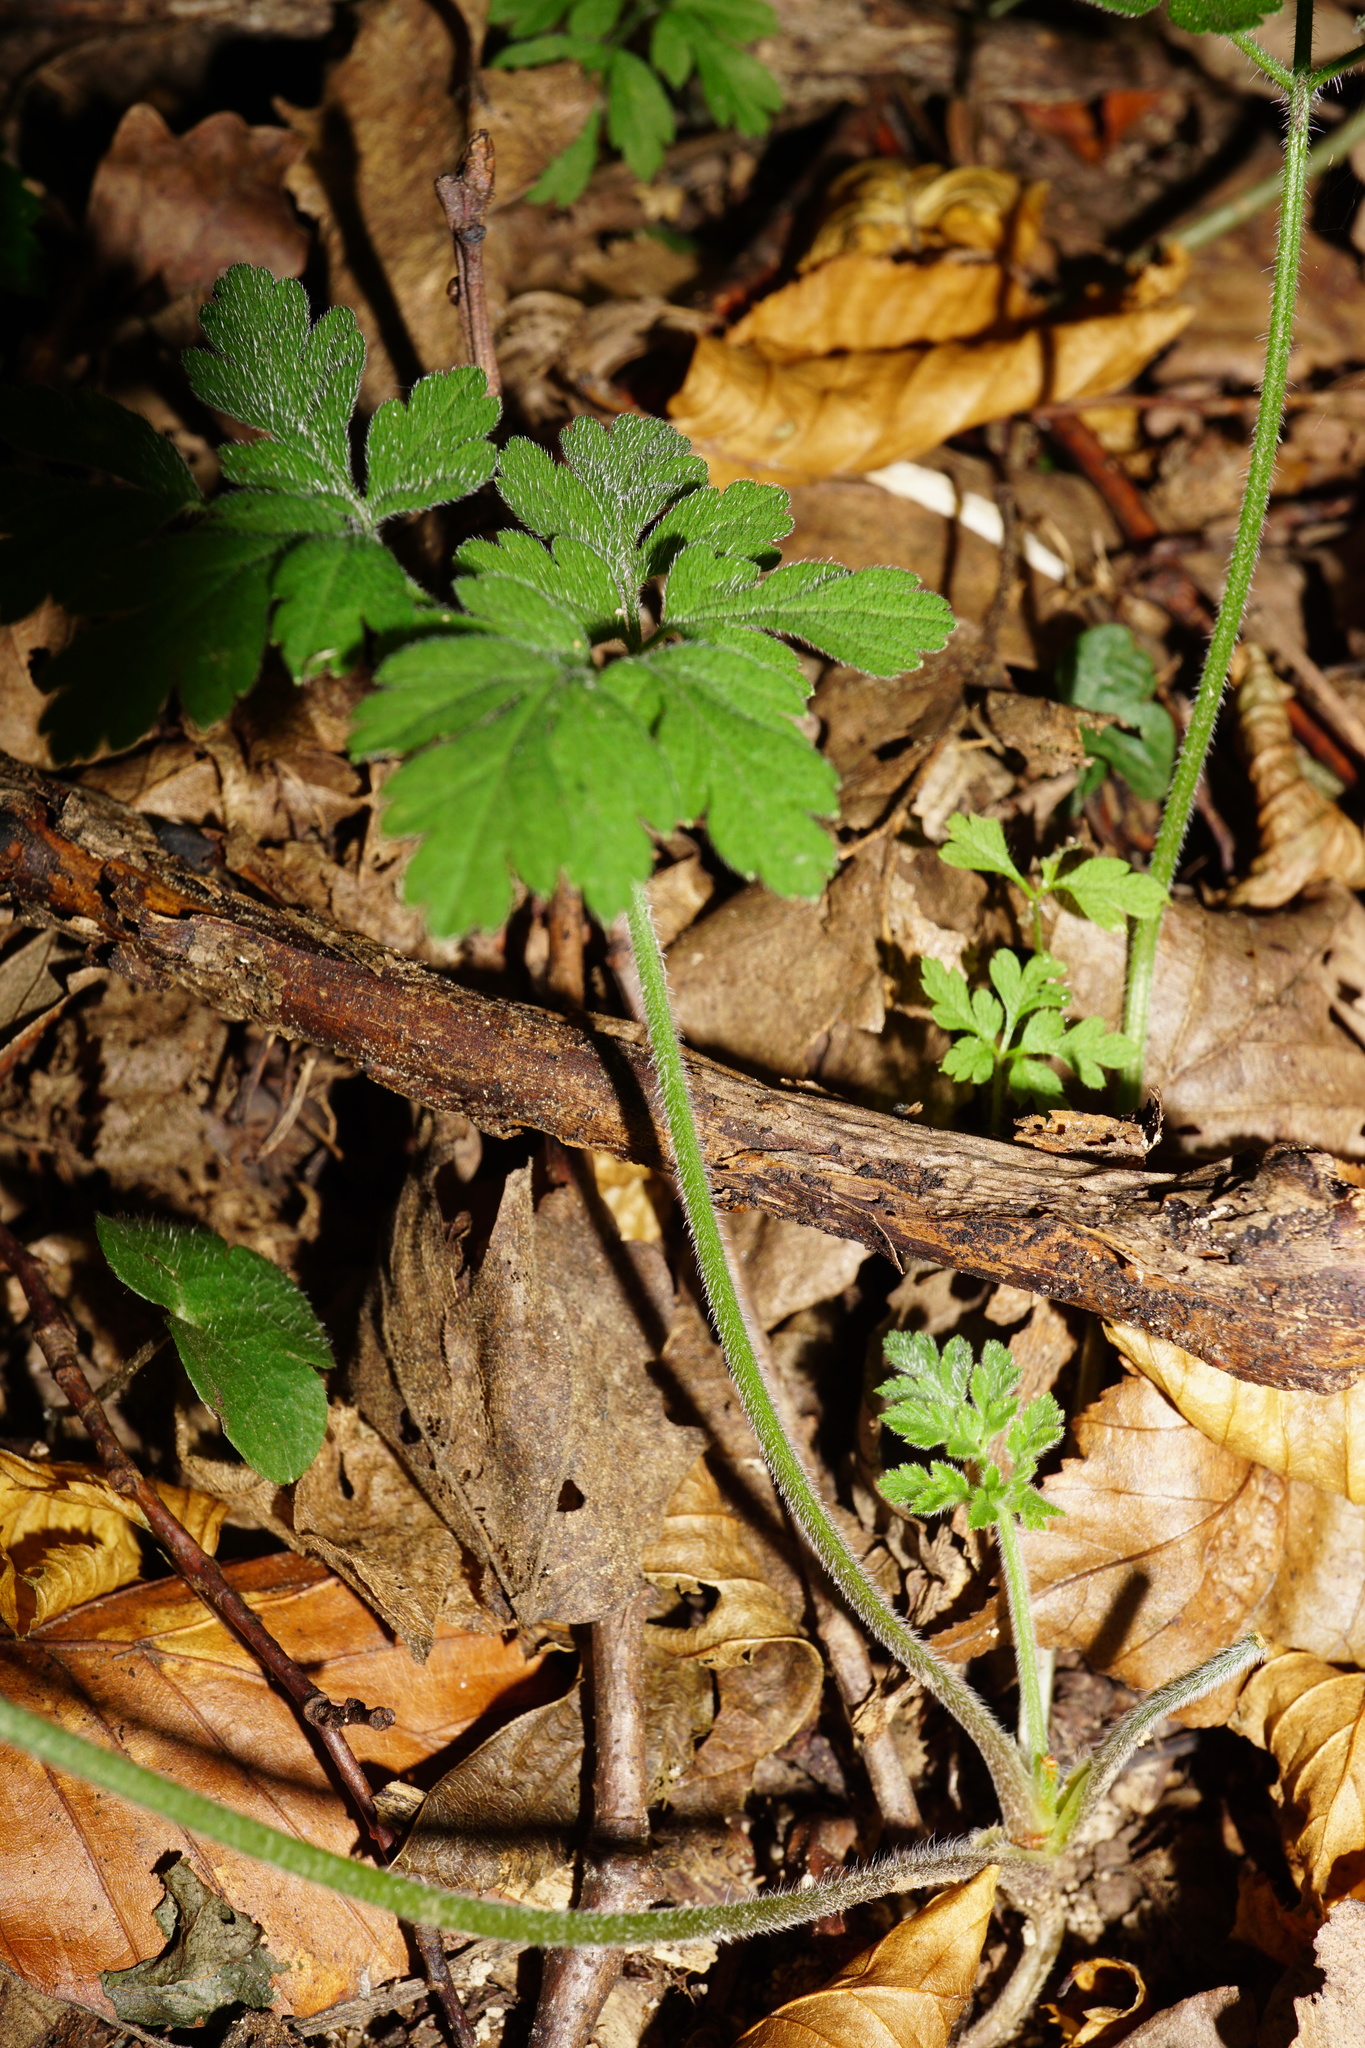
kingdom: Plantae
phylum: Tracheophyta
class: Magnoliopsida
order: Apiales
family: Apiaceae
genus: Chaerophyllum
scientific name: Chaerophyllum temulum
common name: Rough chervil
